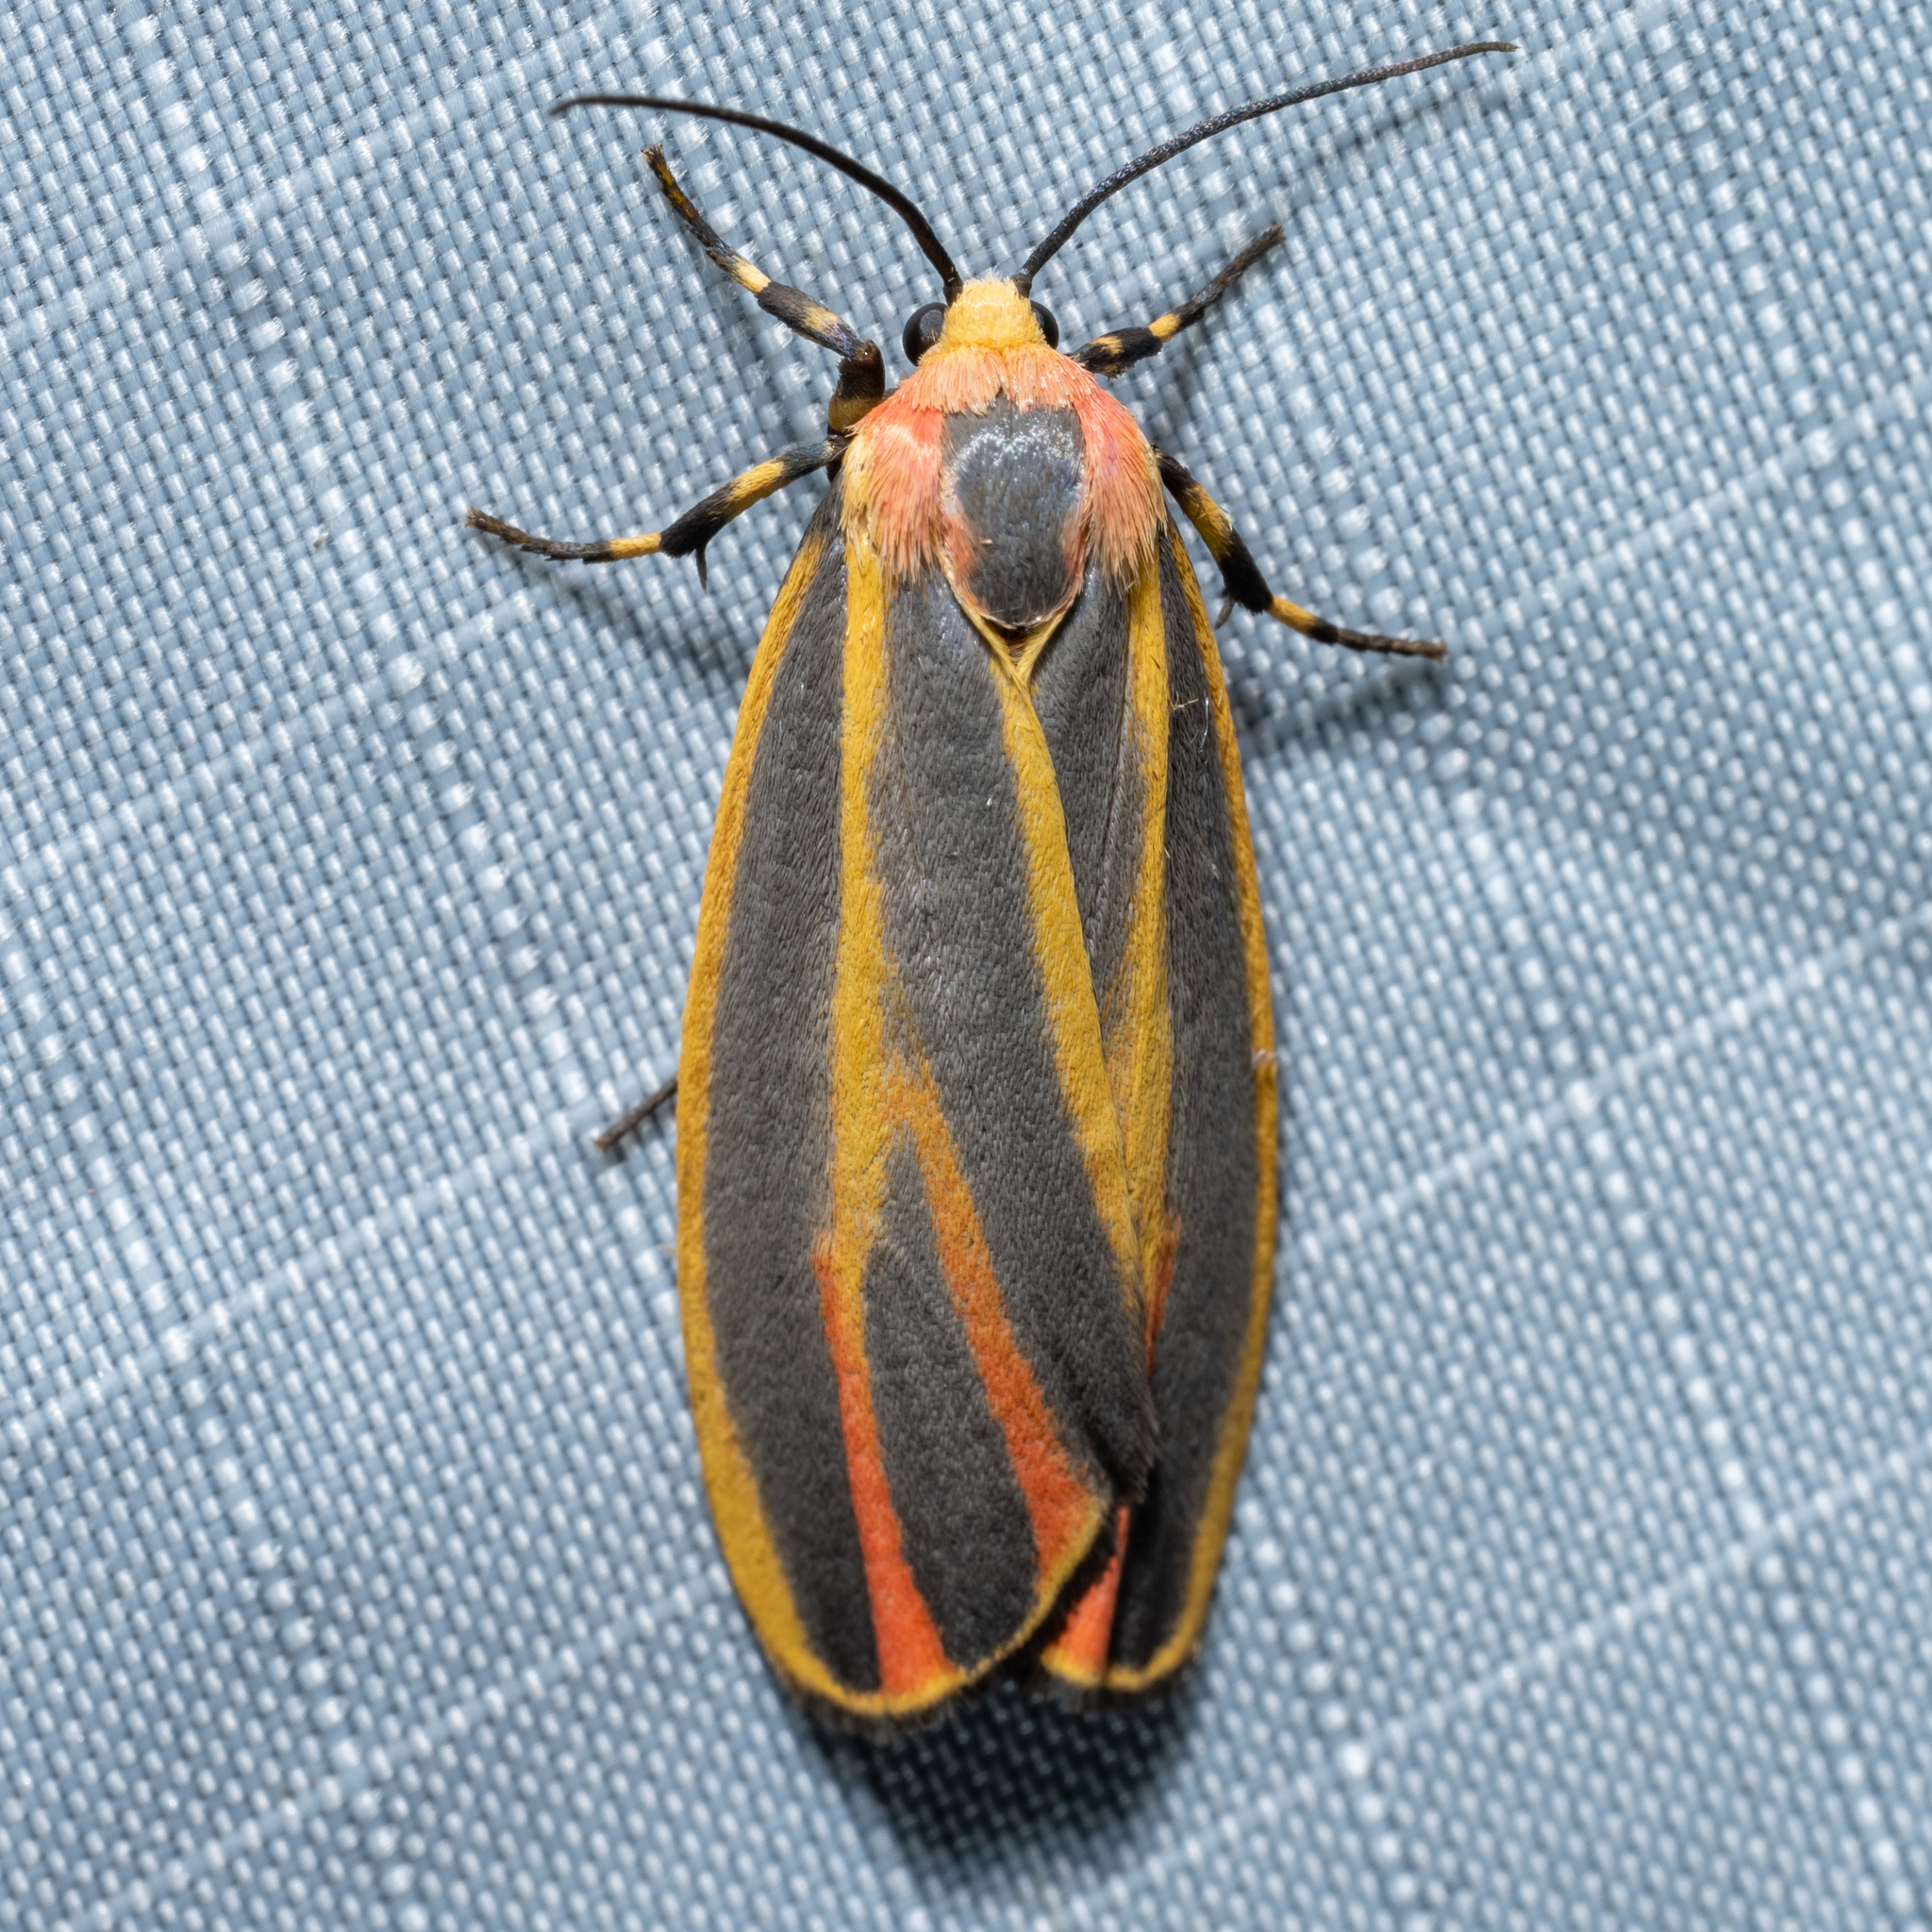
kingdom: Animalia
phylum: Arthropoda
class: Insecta
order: Lepidoptera
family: Erebidae
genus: Hypoprepia
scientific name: Hypoprepia fucosa
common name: Painted lichen moth
